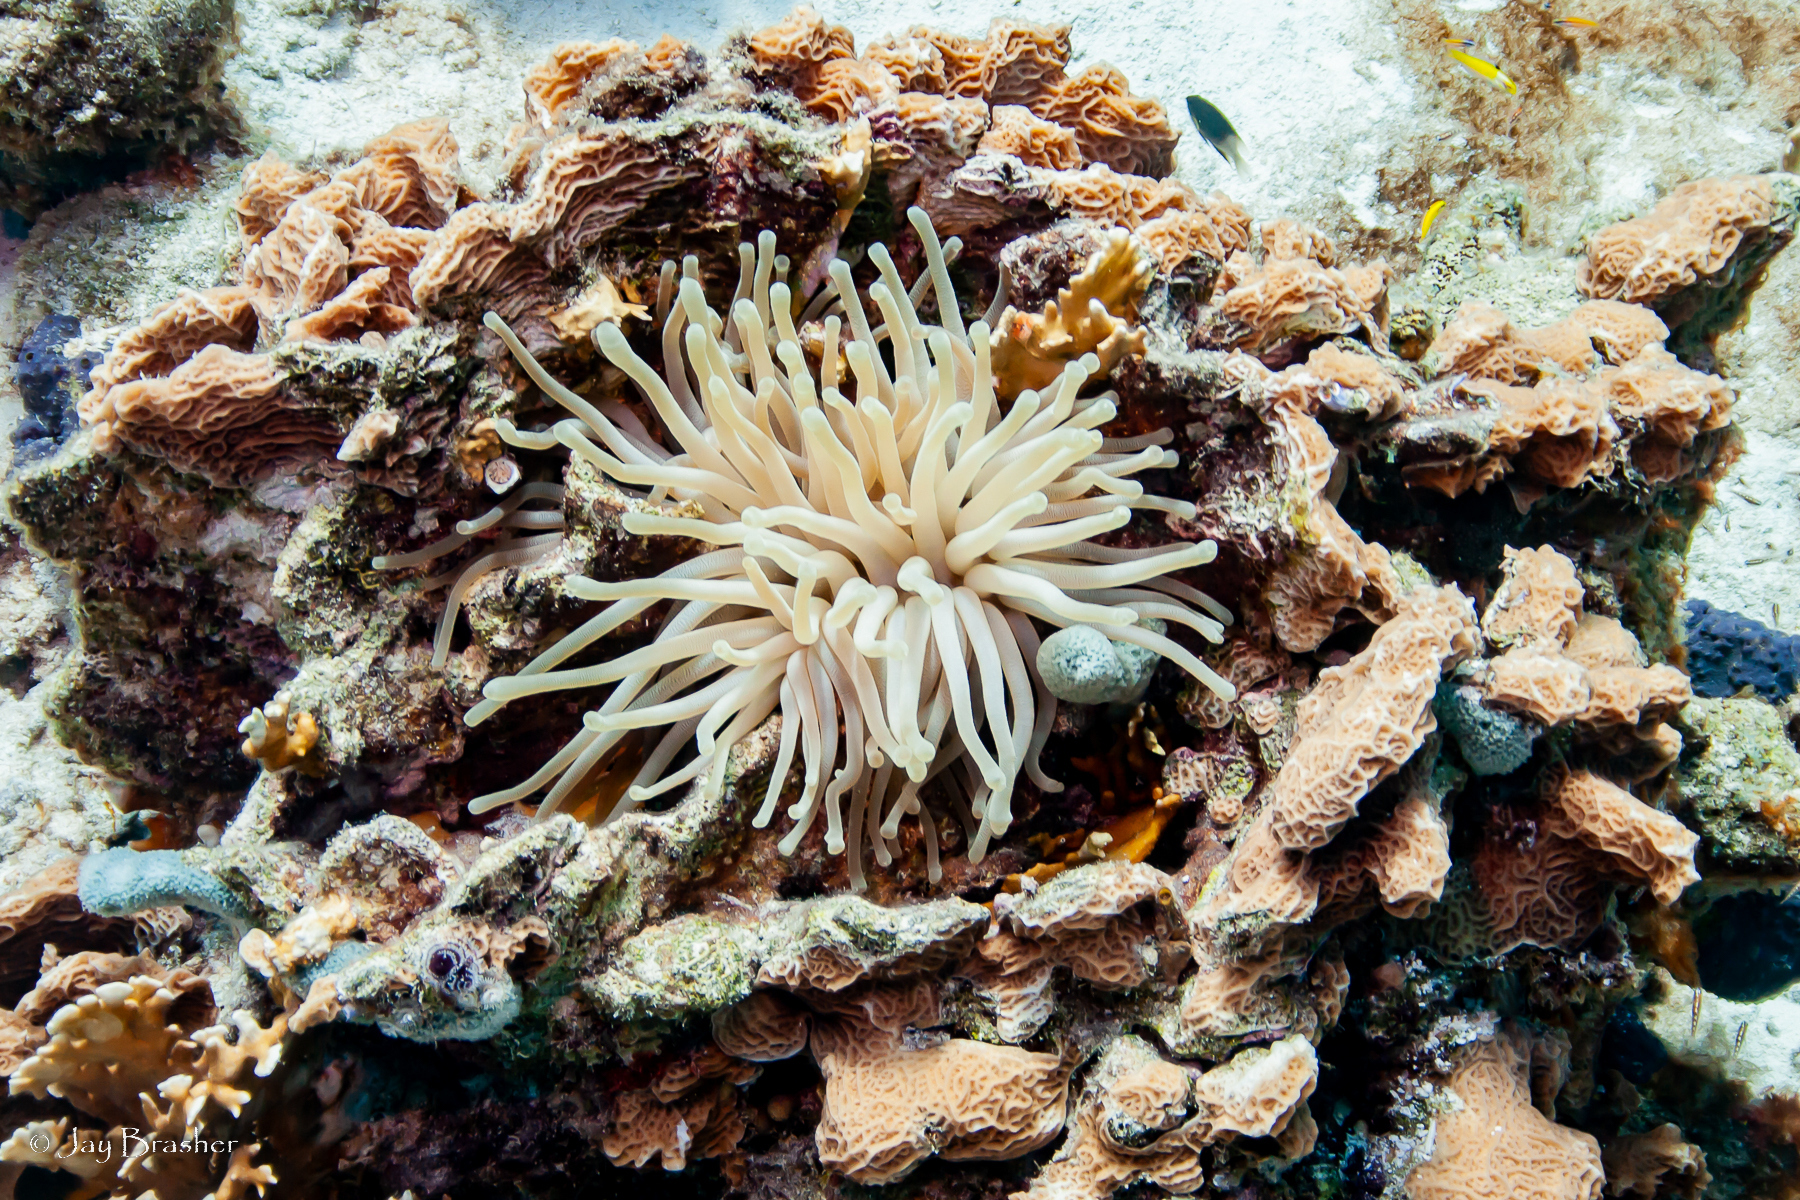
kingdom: Animalia
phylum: Cnidaria
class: Anthozoa
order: Actiniaria
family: Actiniidae
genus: Condylactis
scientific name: Condylactis gigantea
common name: Giant caribbean anemone
